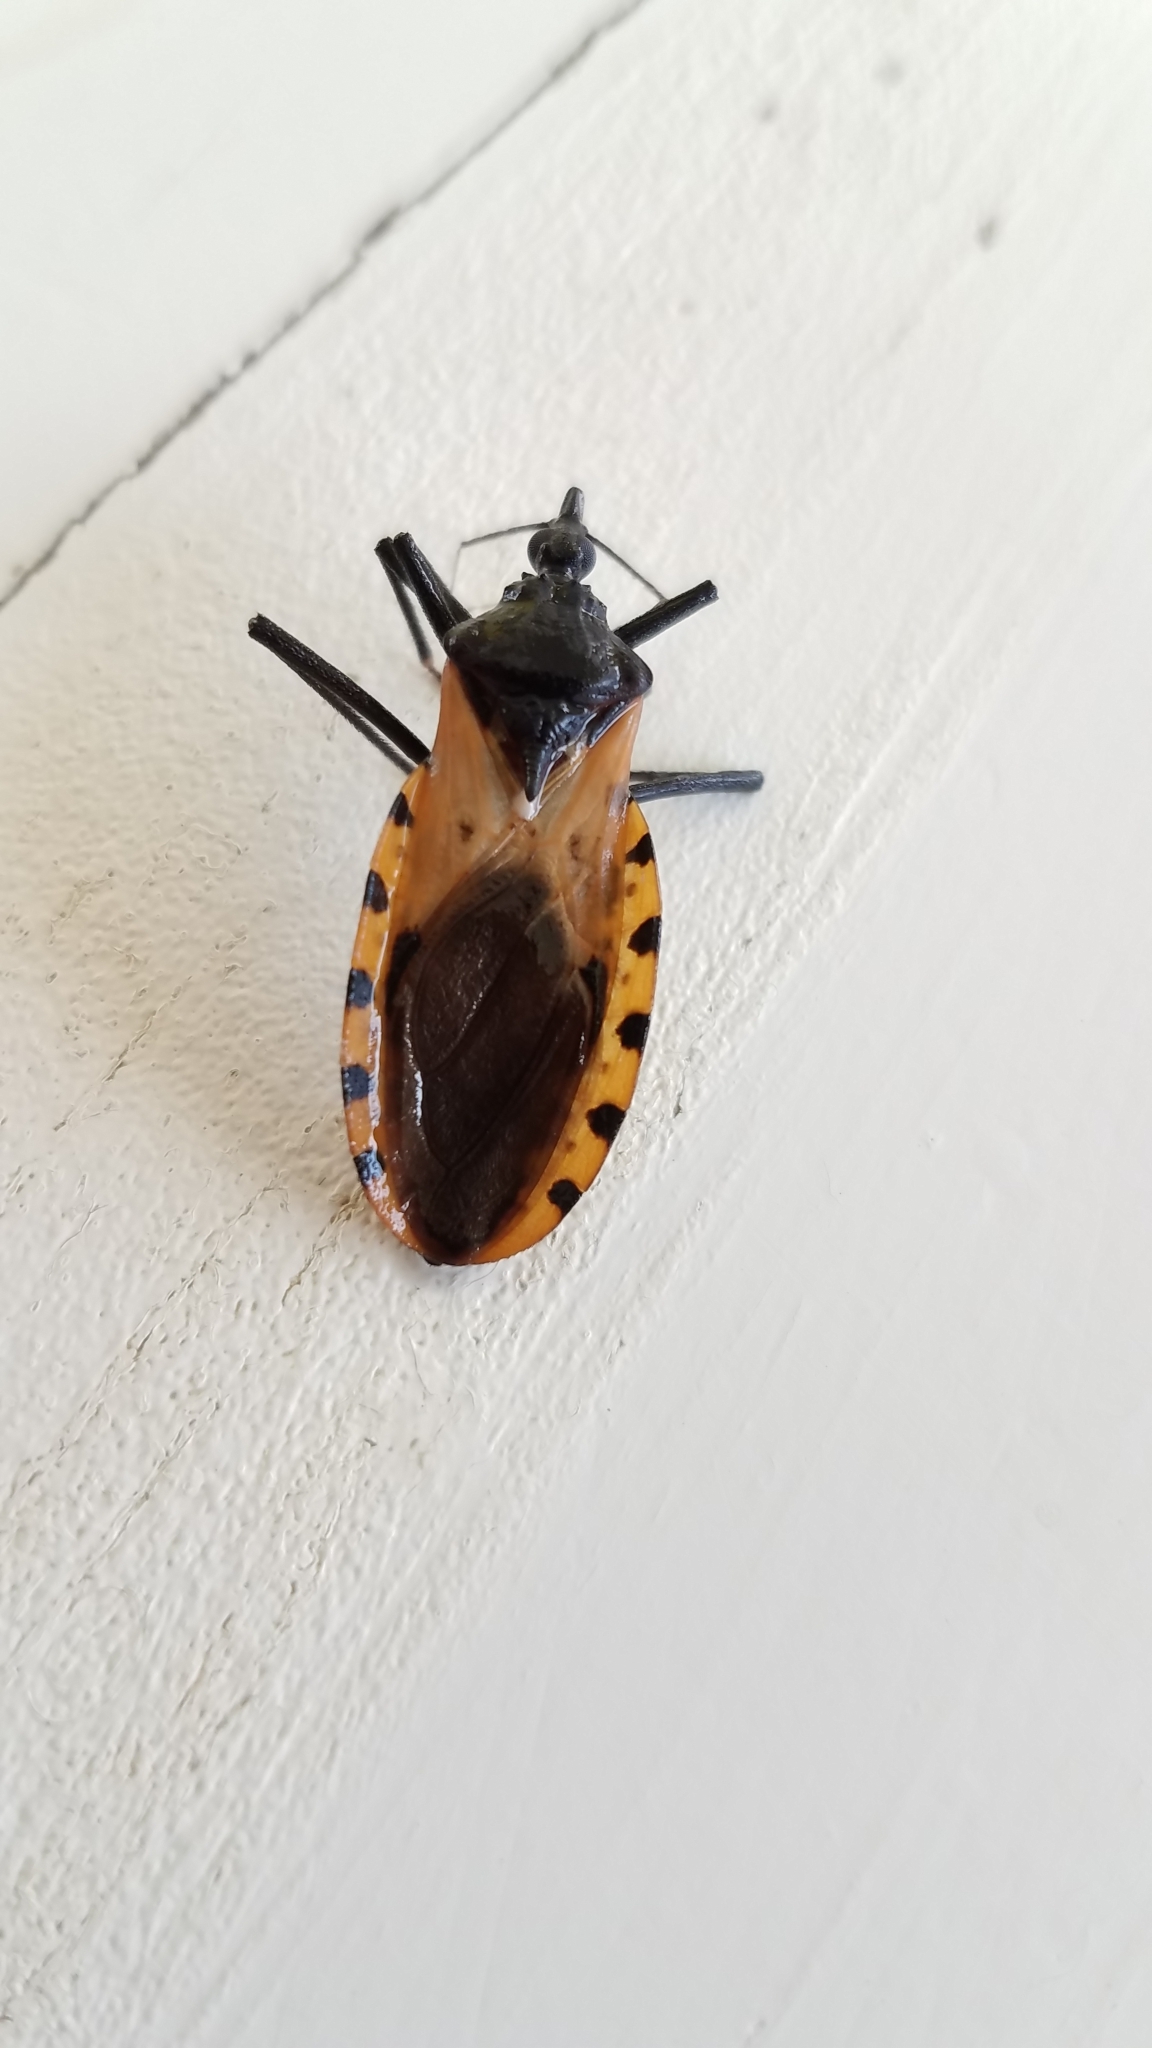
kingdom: Animalia
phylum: Arthropoda
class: Insecta
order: Hemiptera
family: Reduviidae
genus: Meccus
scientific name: Meccus dimidiatus
